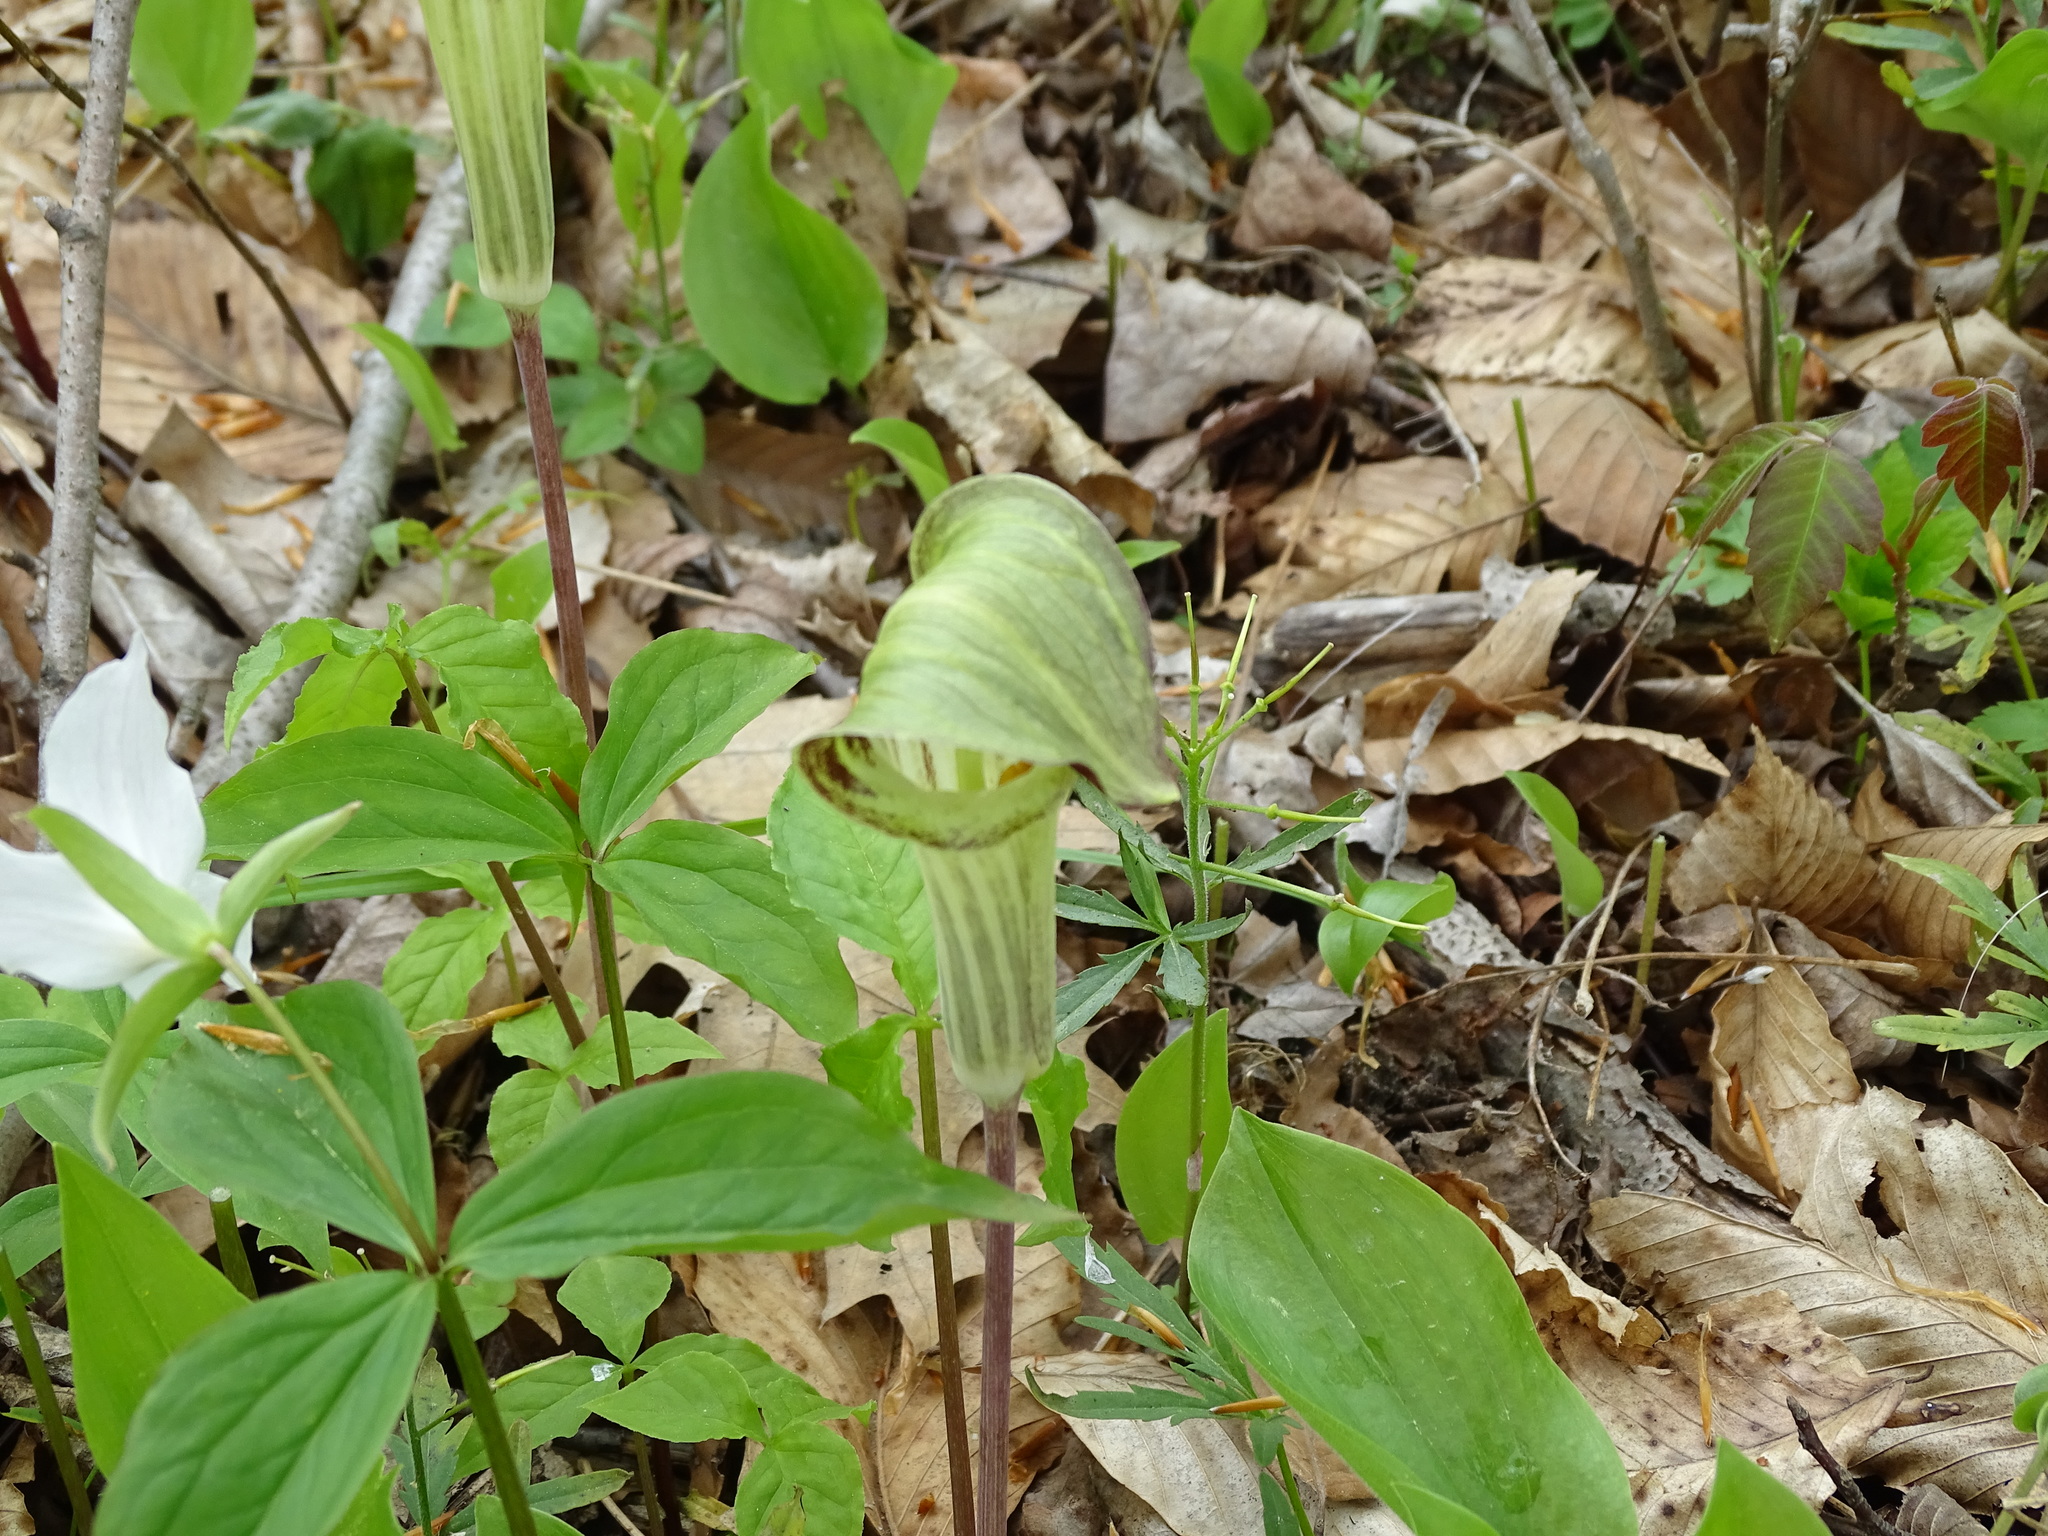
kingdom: Plantae
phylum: Tracheophyta
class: Liliopsida
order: Alismatales
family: Araceae
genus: Arisaema
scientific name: Arisaema triphyllum
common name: Jack-in-the-pulpit
